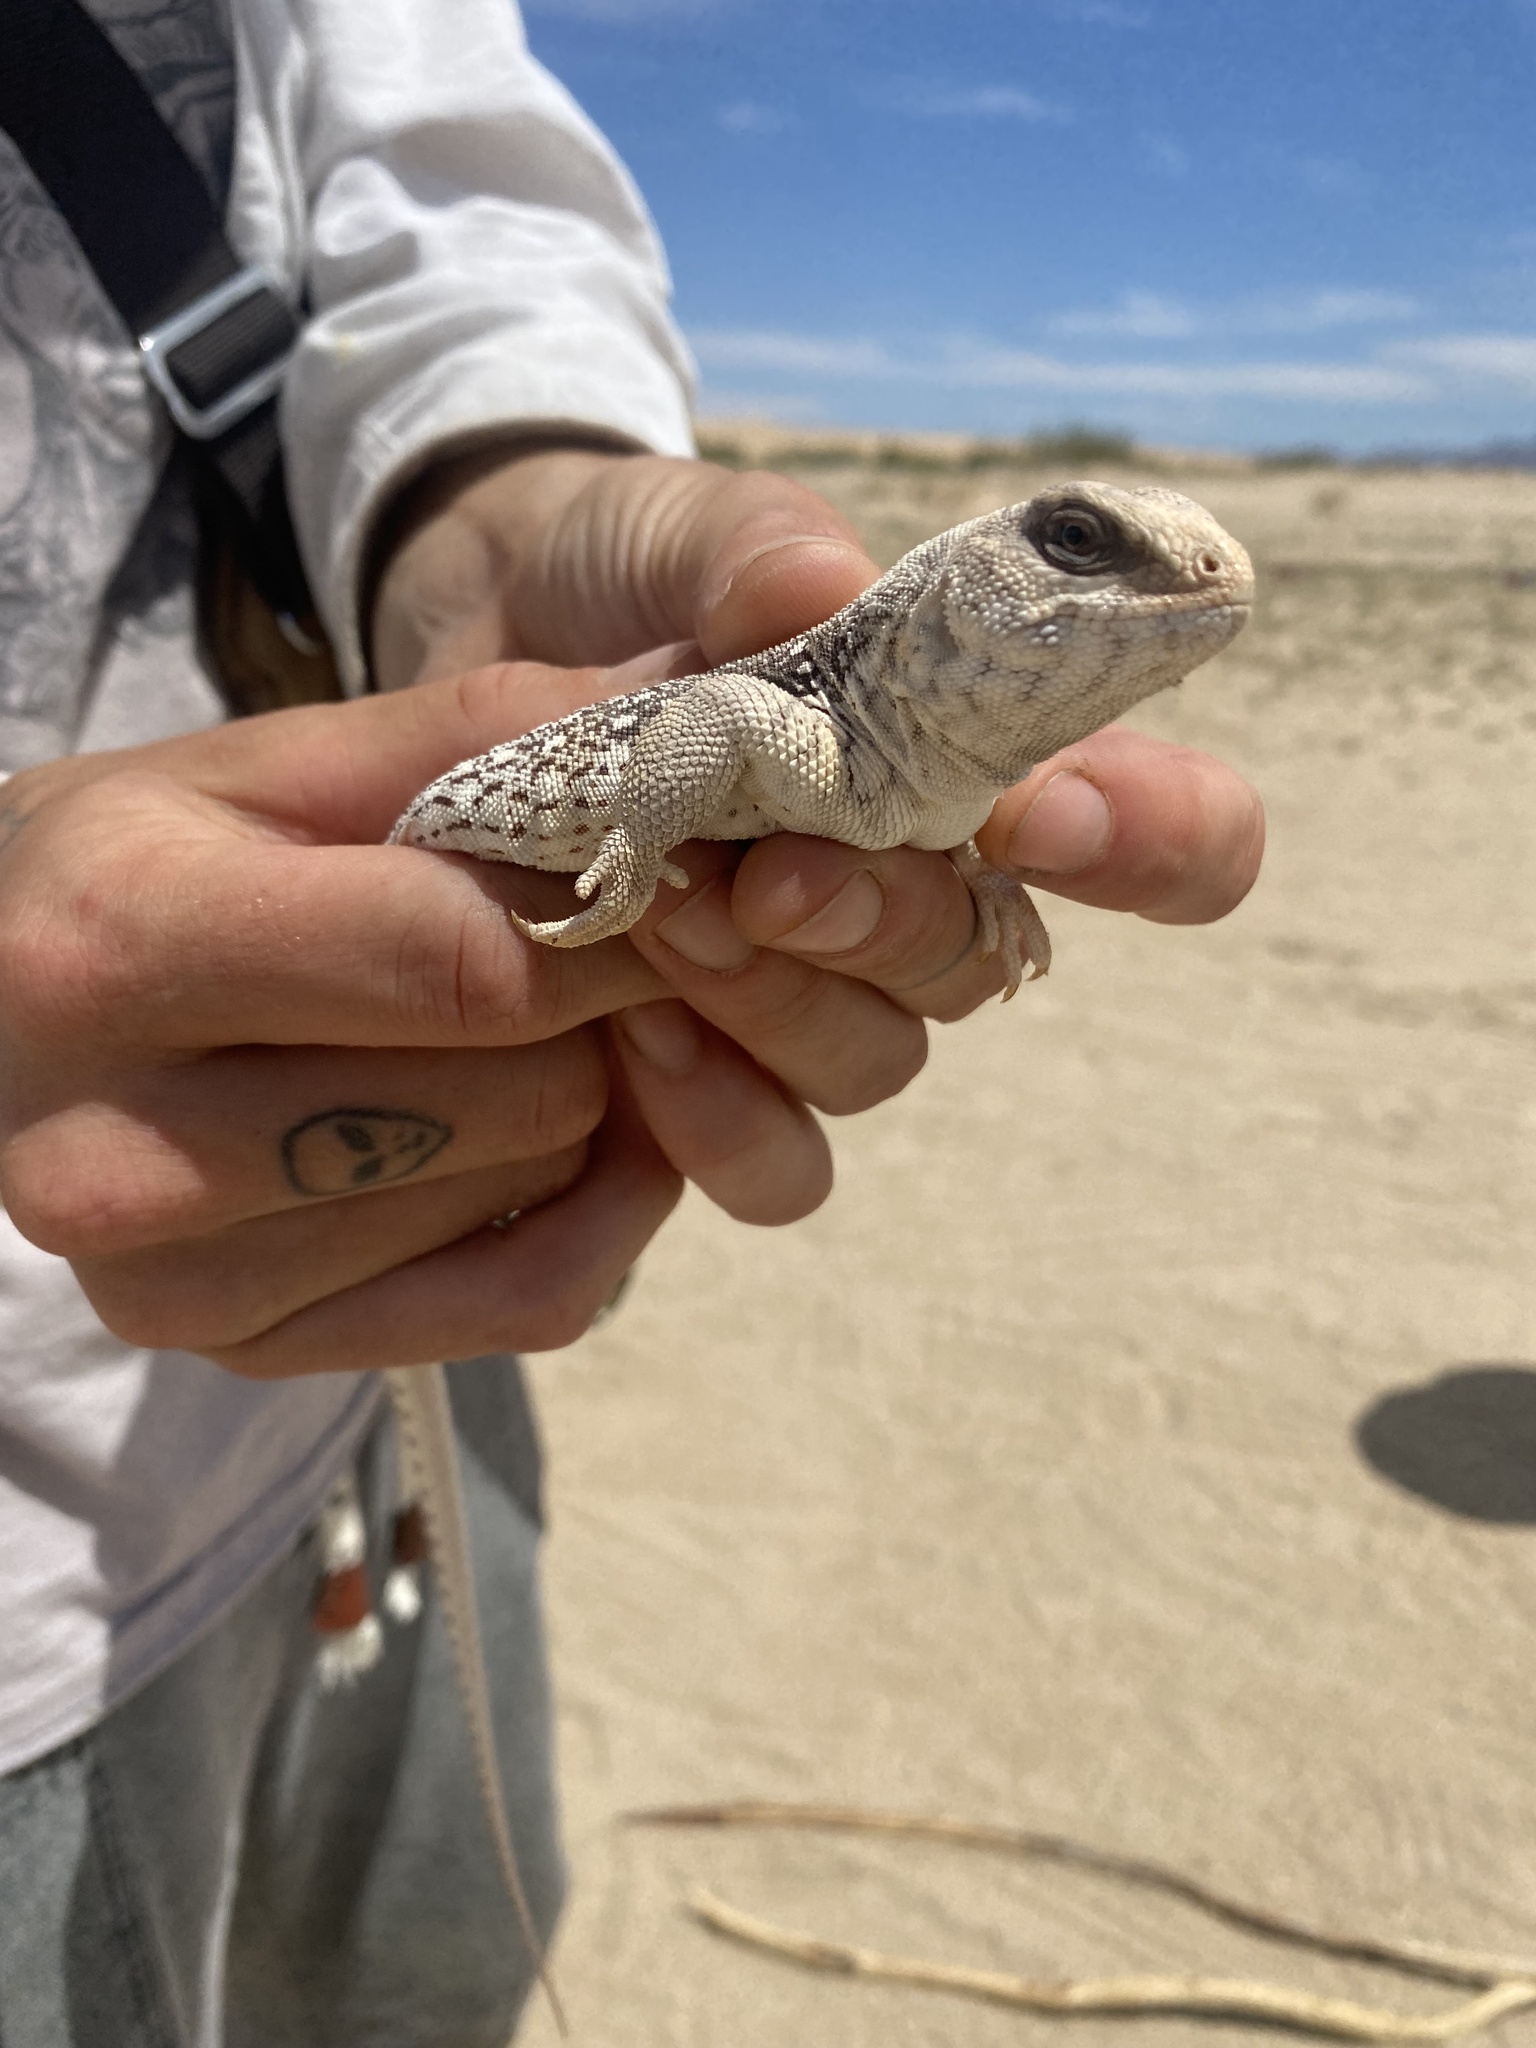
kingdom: Animalia
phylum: Chordata
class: Squamata
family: Iguanidae
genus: Dipsosaurus
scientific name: Dipsosaurus dorsalis
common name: Desert iguana
